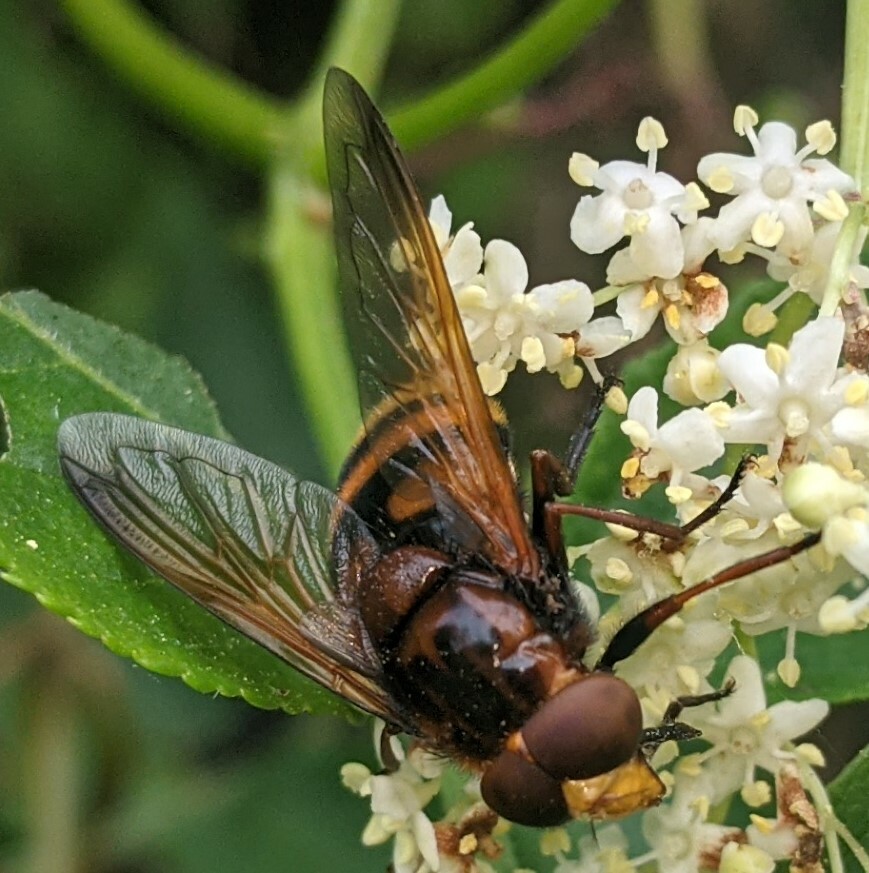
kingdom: Animalia
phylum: Arthropoda
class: Insecta
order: Diptera
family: Syrphidae
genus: Volucella
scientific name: Volucella zonaria
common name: Hornet hoverfly
